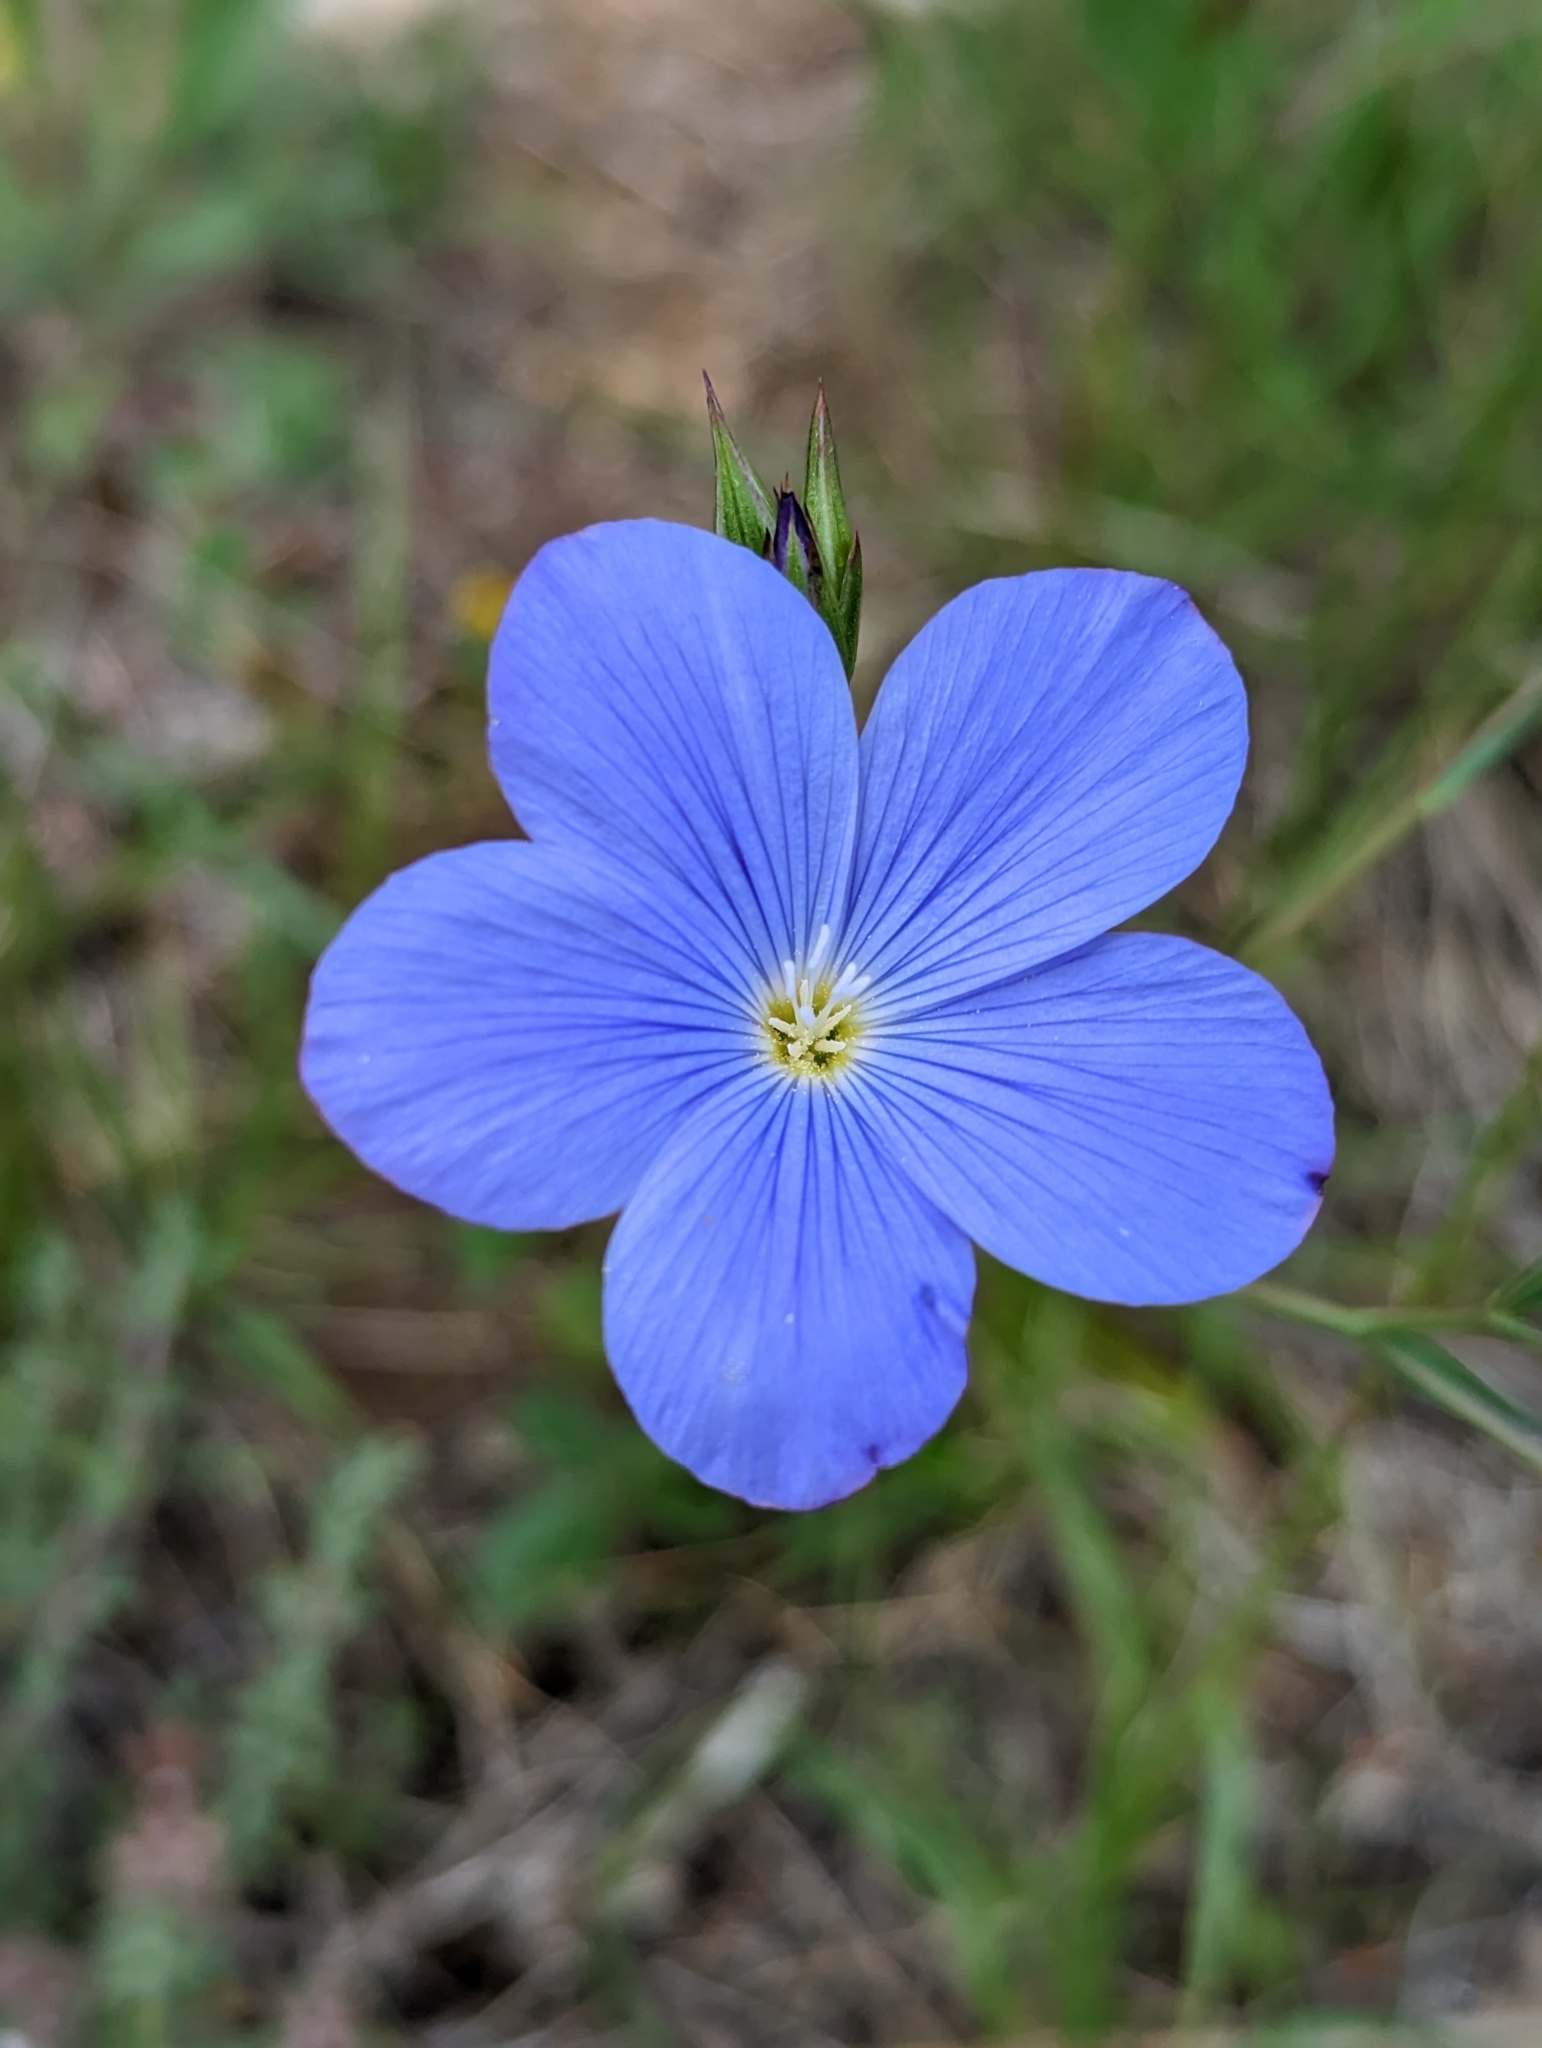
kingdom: Plantae
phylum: Tracheophyta
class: Magnoliopsida
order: Malpighiales
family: Linaceae
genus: Linum
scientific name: Linum narbonense
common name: Flax
